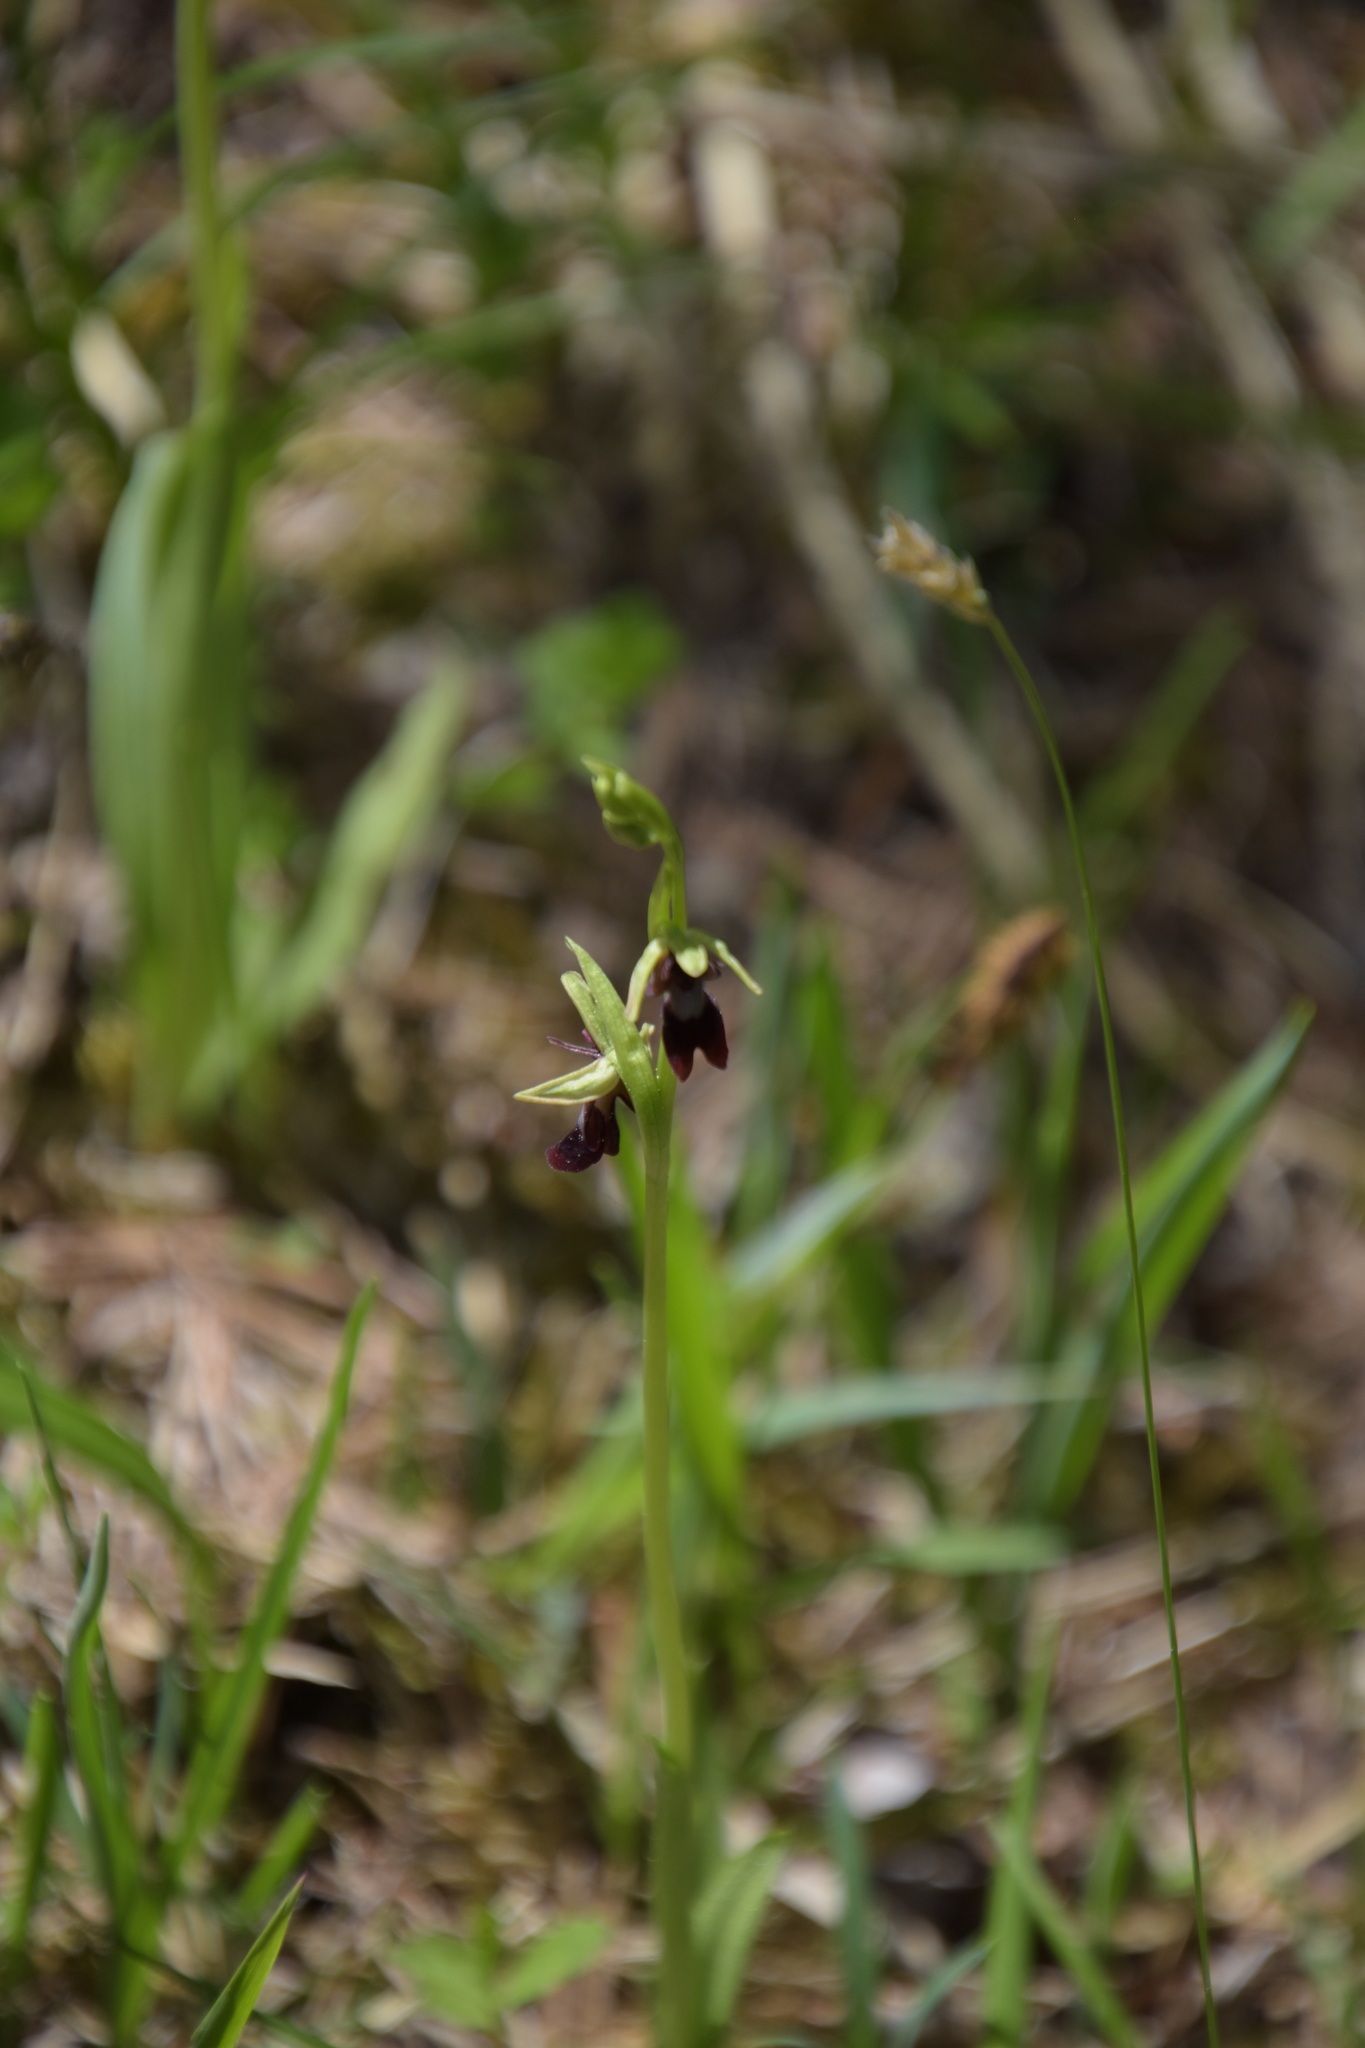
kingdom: Plantae
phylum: Tracheophyta
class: Liliopsida
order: Asparagales
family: Orchidaceae
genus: Ophrys
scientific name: Ophrys insectifera
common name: Fly orchid
